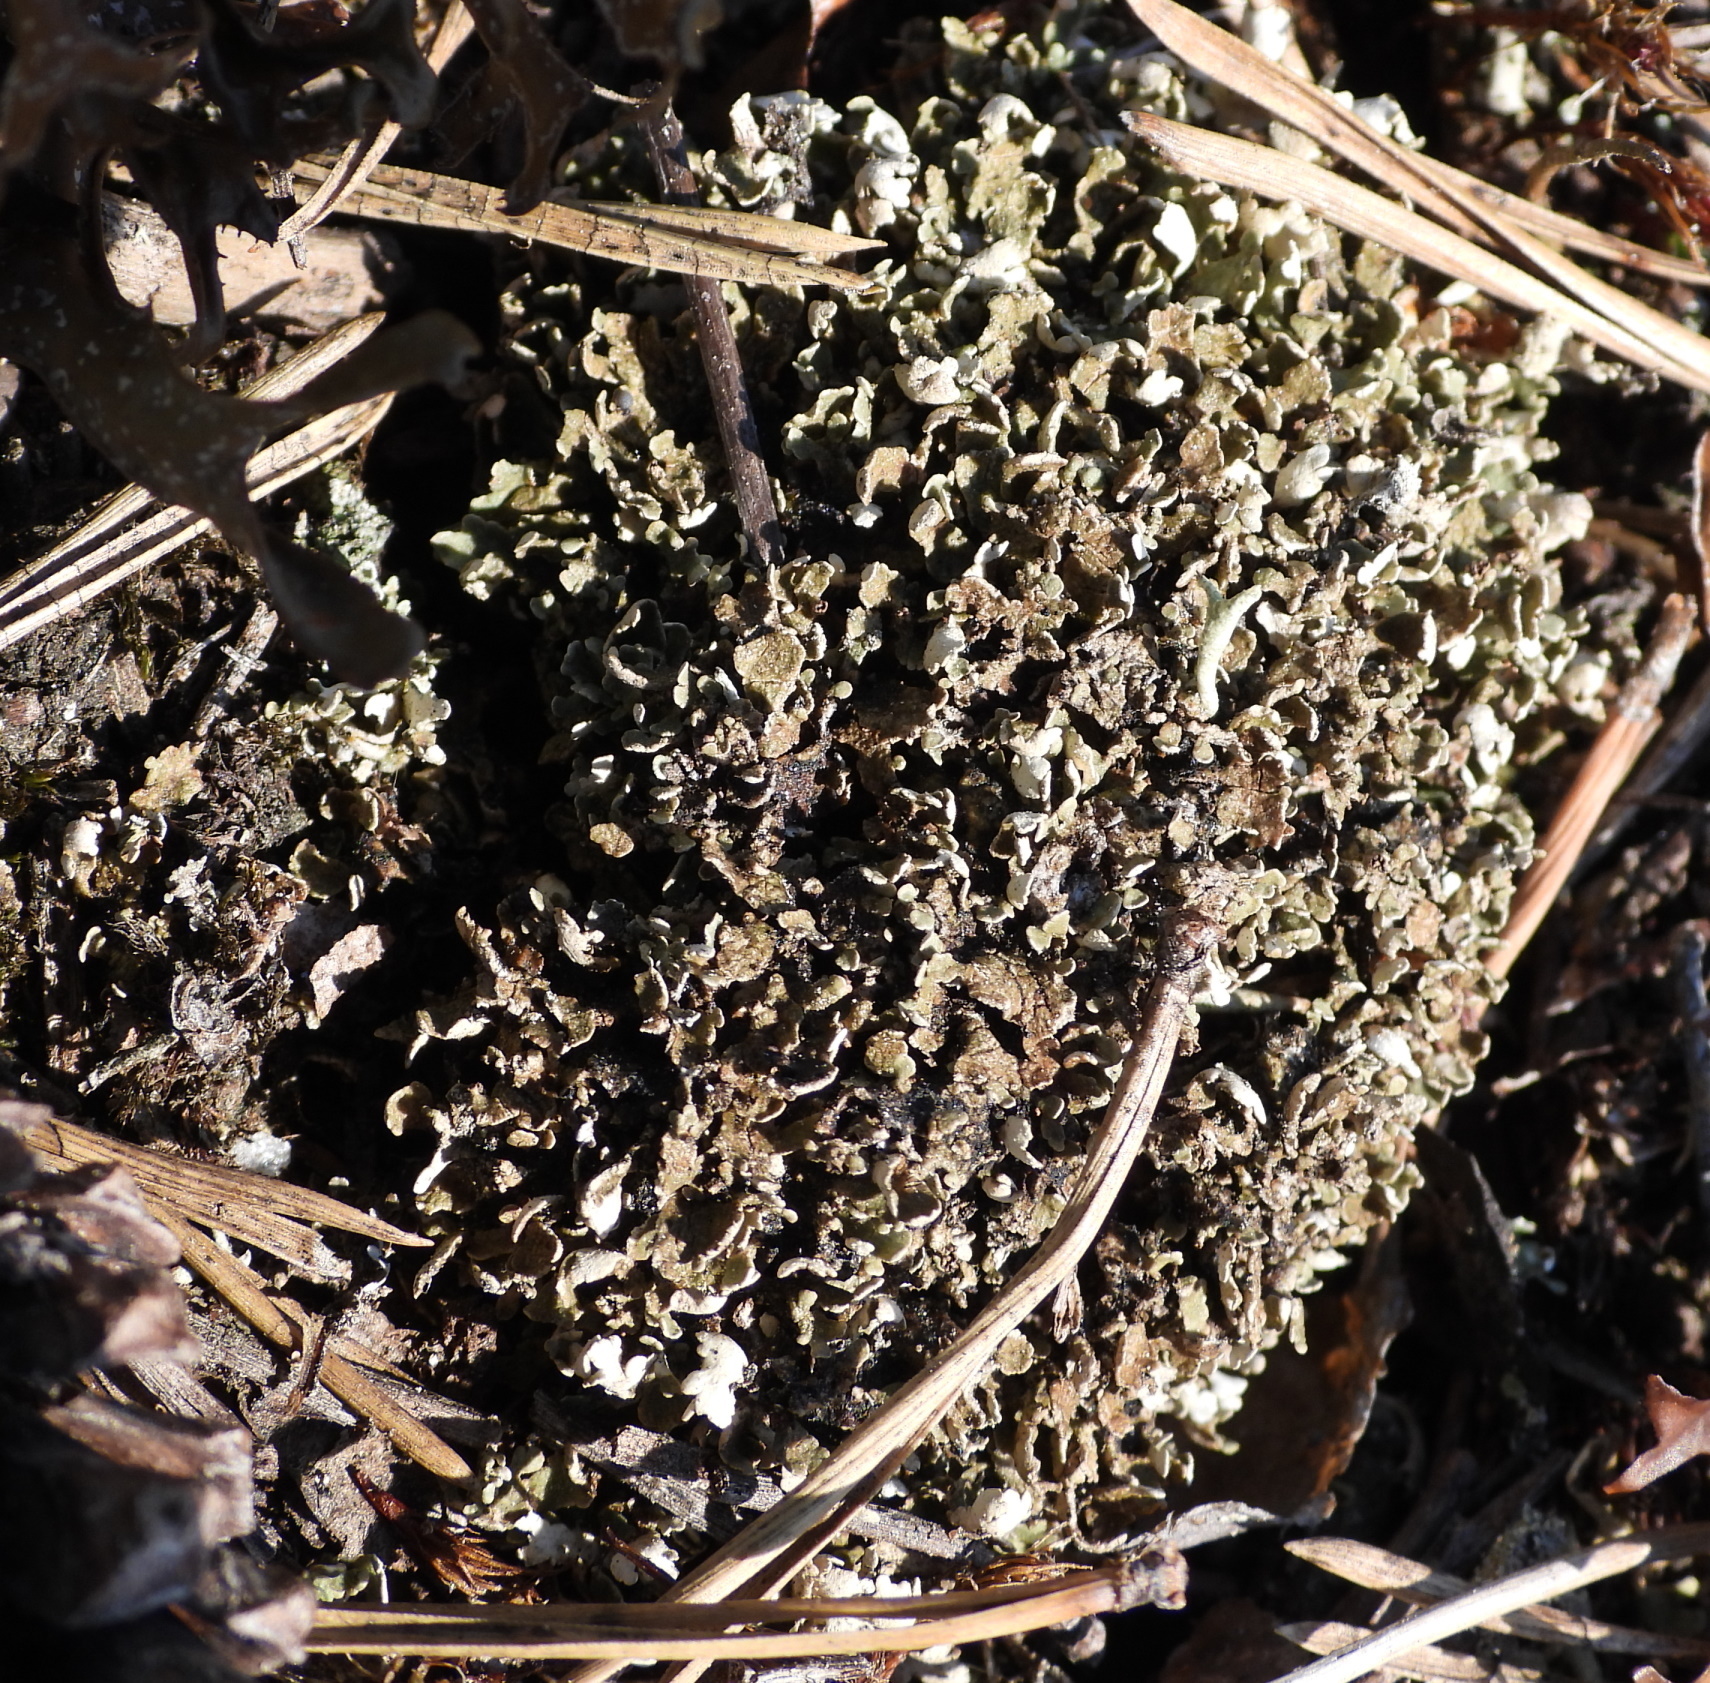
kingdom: Fungi
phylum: Ascomycota
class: Lecanoromycetes
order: Lecanorales
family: Cladoniaceae
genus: Cladonia
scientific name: Cladonia strepsilis
